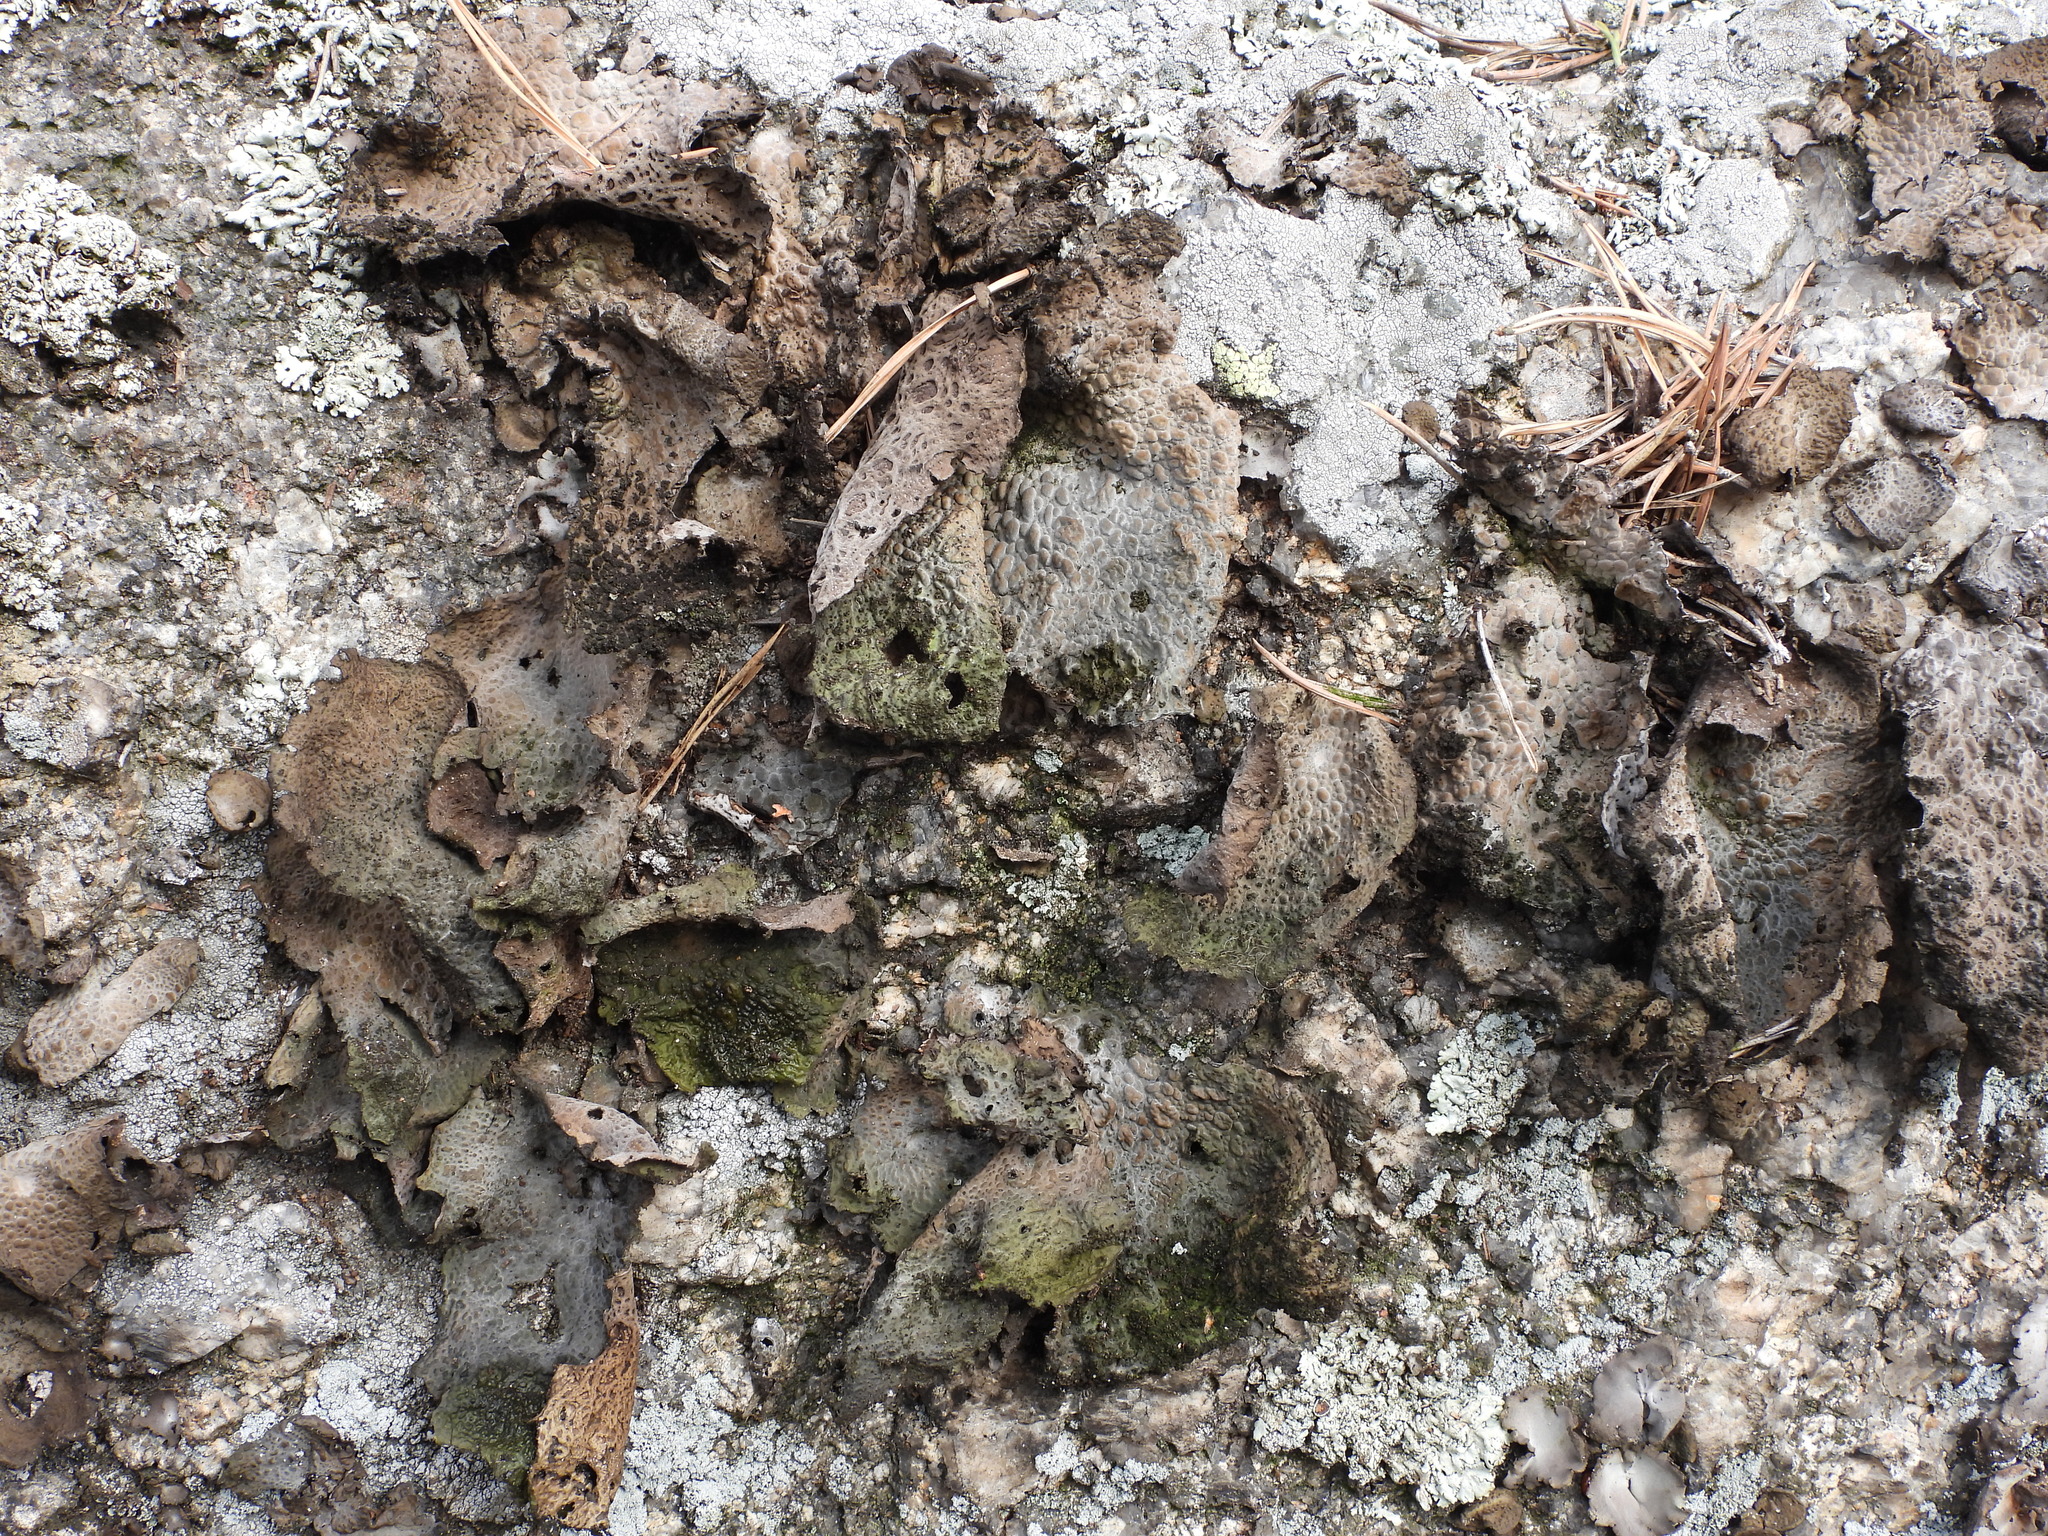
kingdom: Fungi
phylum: Ascomycota
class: Lecanoromycetes
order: Umbilicariales
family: Umbilicariaceae
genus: Lasallia
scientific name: Lasallia pustulata
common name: Blistered toadskin lichen
